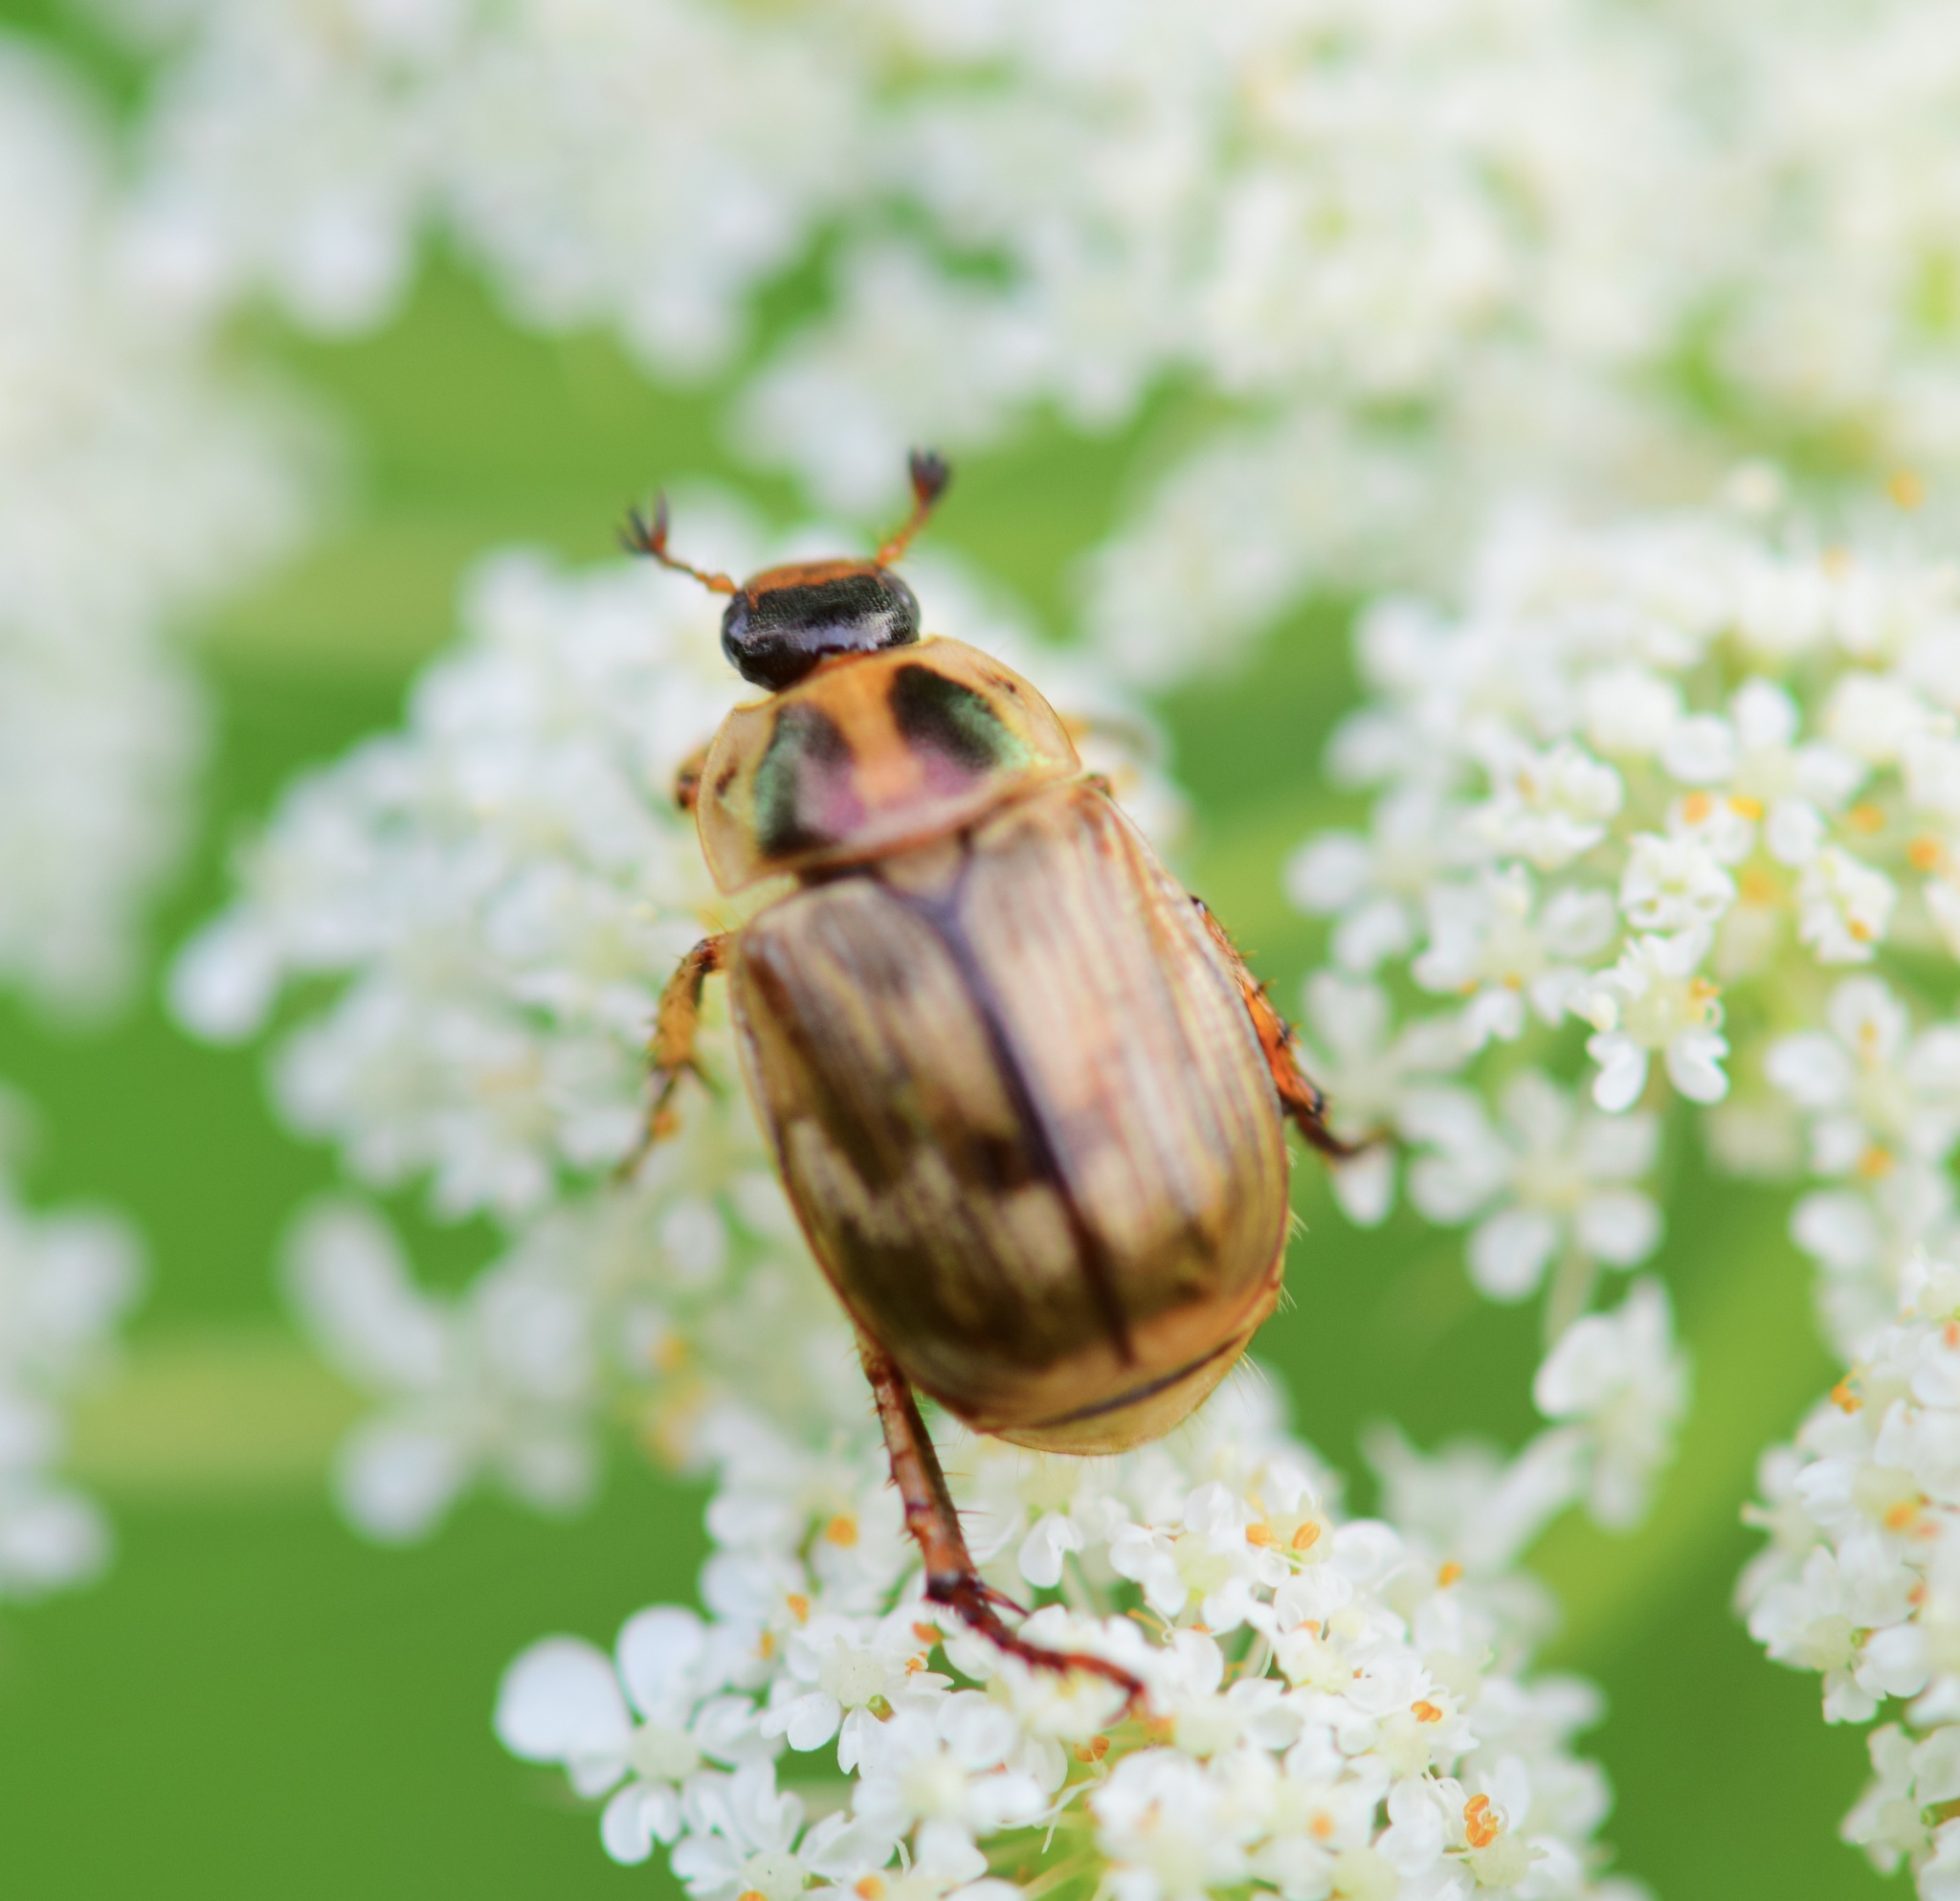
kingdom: Animalia
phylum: Arthropoda
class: Insecta
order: Coleoptera
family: Scarabaeidae
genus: Exomala
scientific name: Exomala orientalis
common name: Oriental beetle
